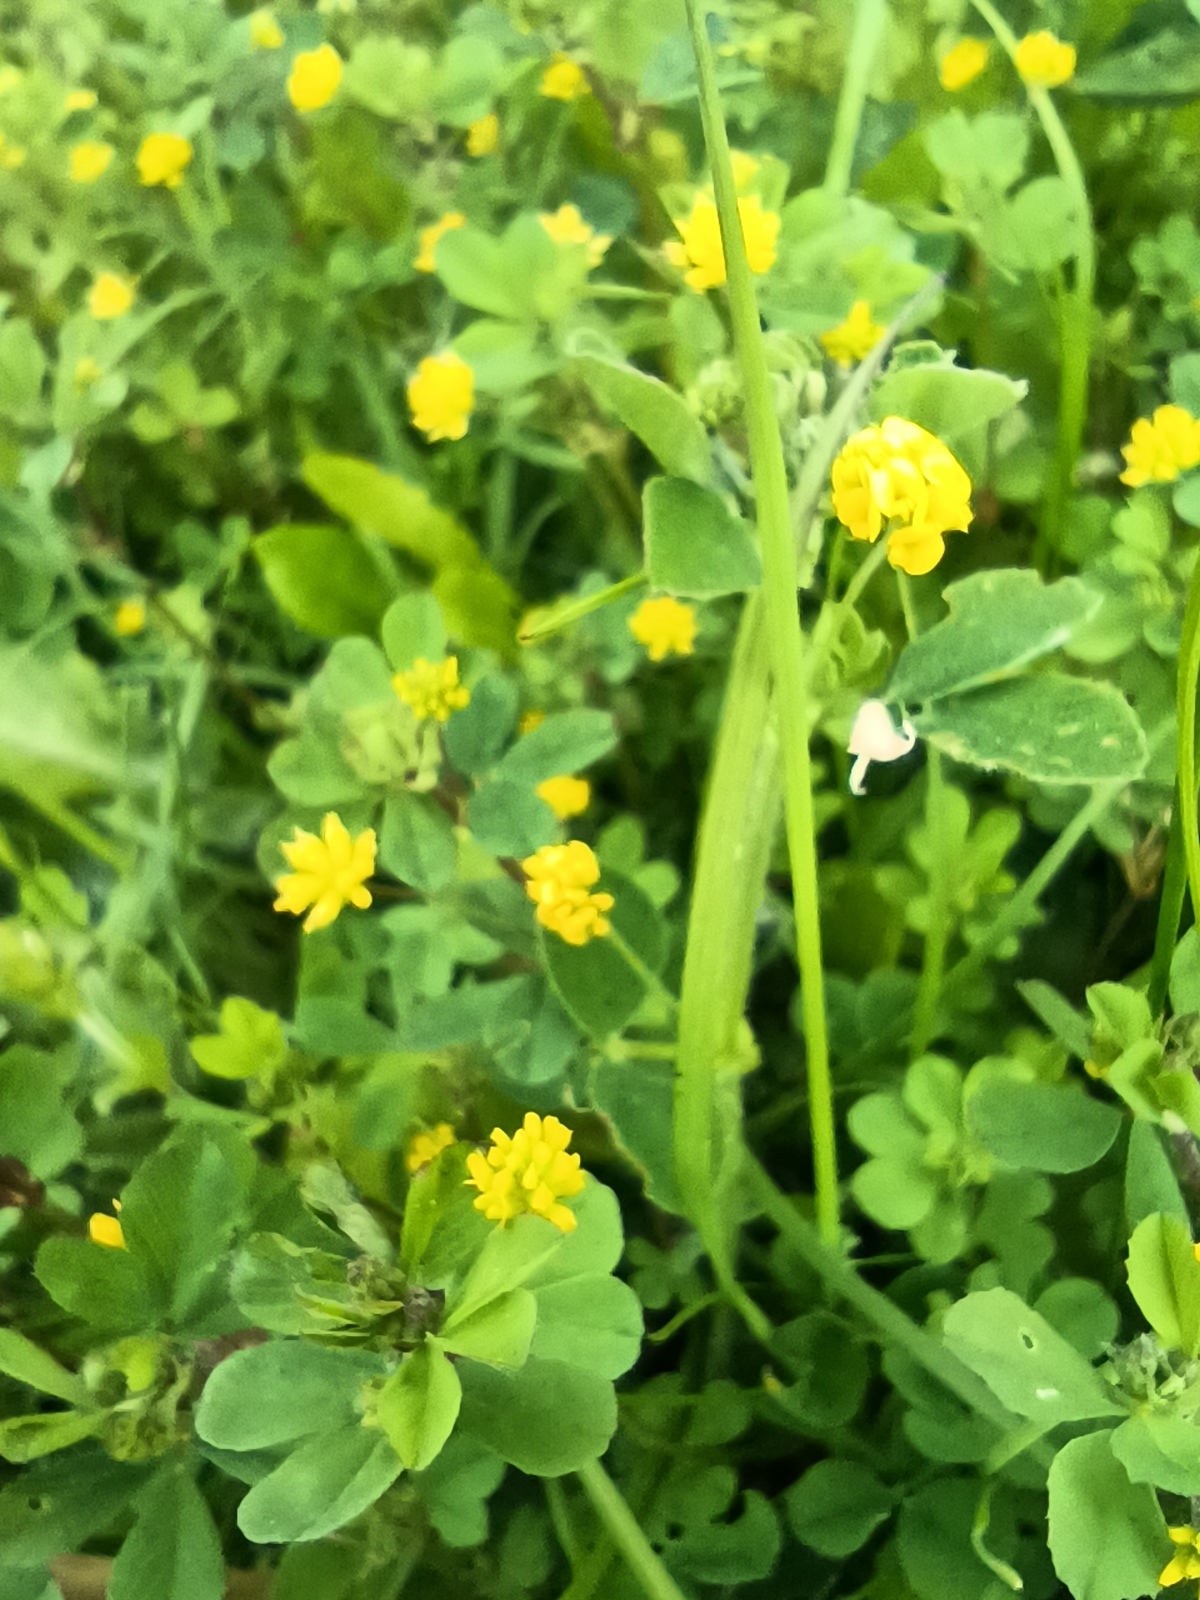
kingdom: Plantae
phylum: Tracheophyta
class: Magnoliopsida
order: Fabales
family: Fabaceae
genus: Trifolium
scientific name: Trifolium dubium
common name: Suckling clover
